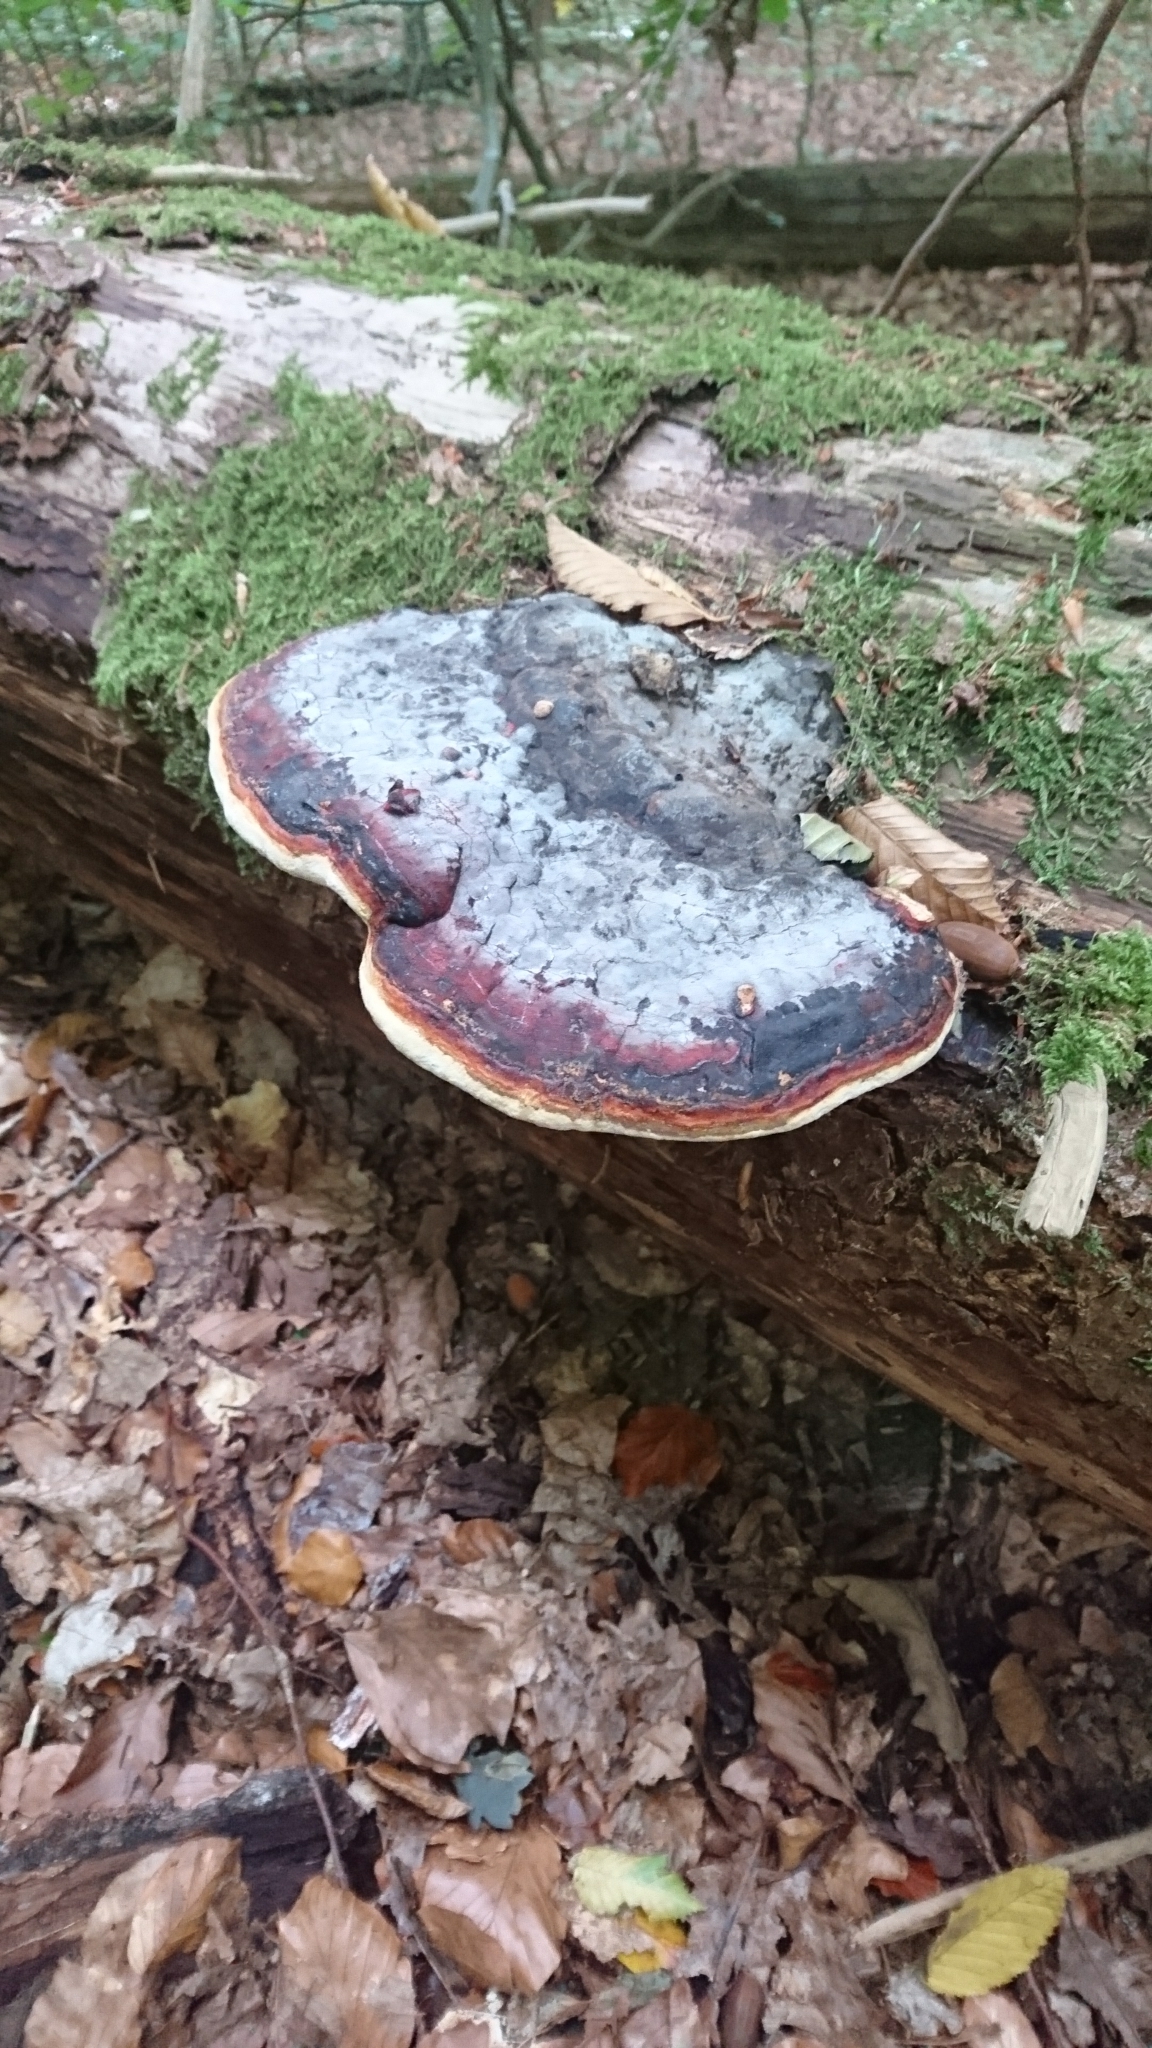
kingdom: Fungi
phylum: Basidiomycota
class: Agaricomycetes
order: Polyporales
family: Fomitopsidaceae
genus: Fomitopsis
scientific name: Fomitopsis pinicola
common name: Red-belted bracket
